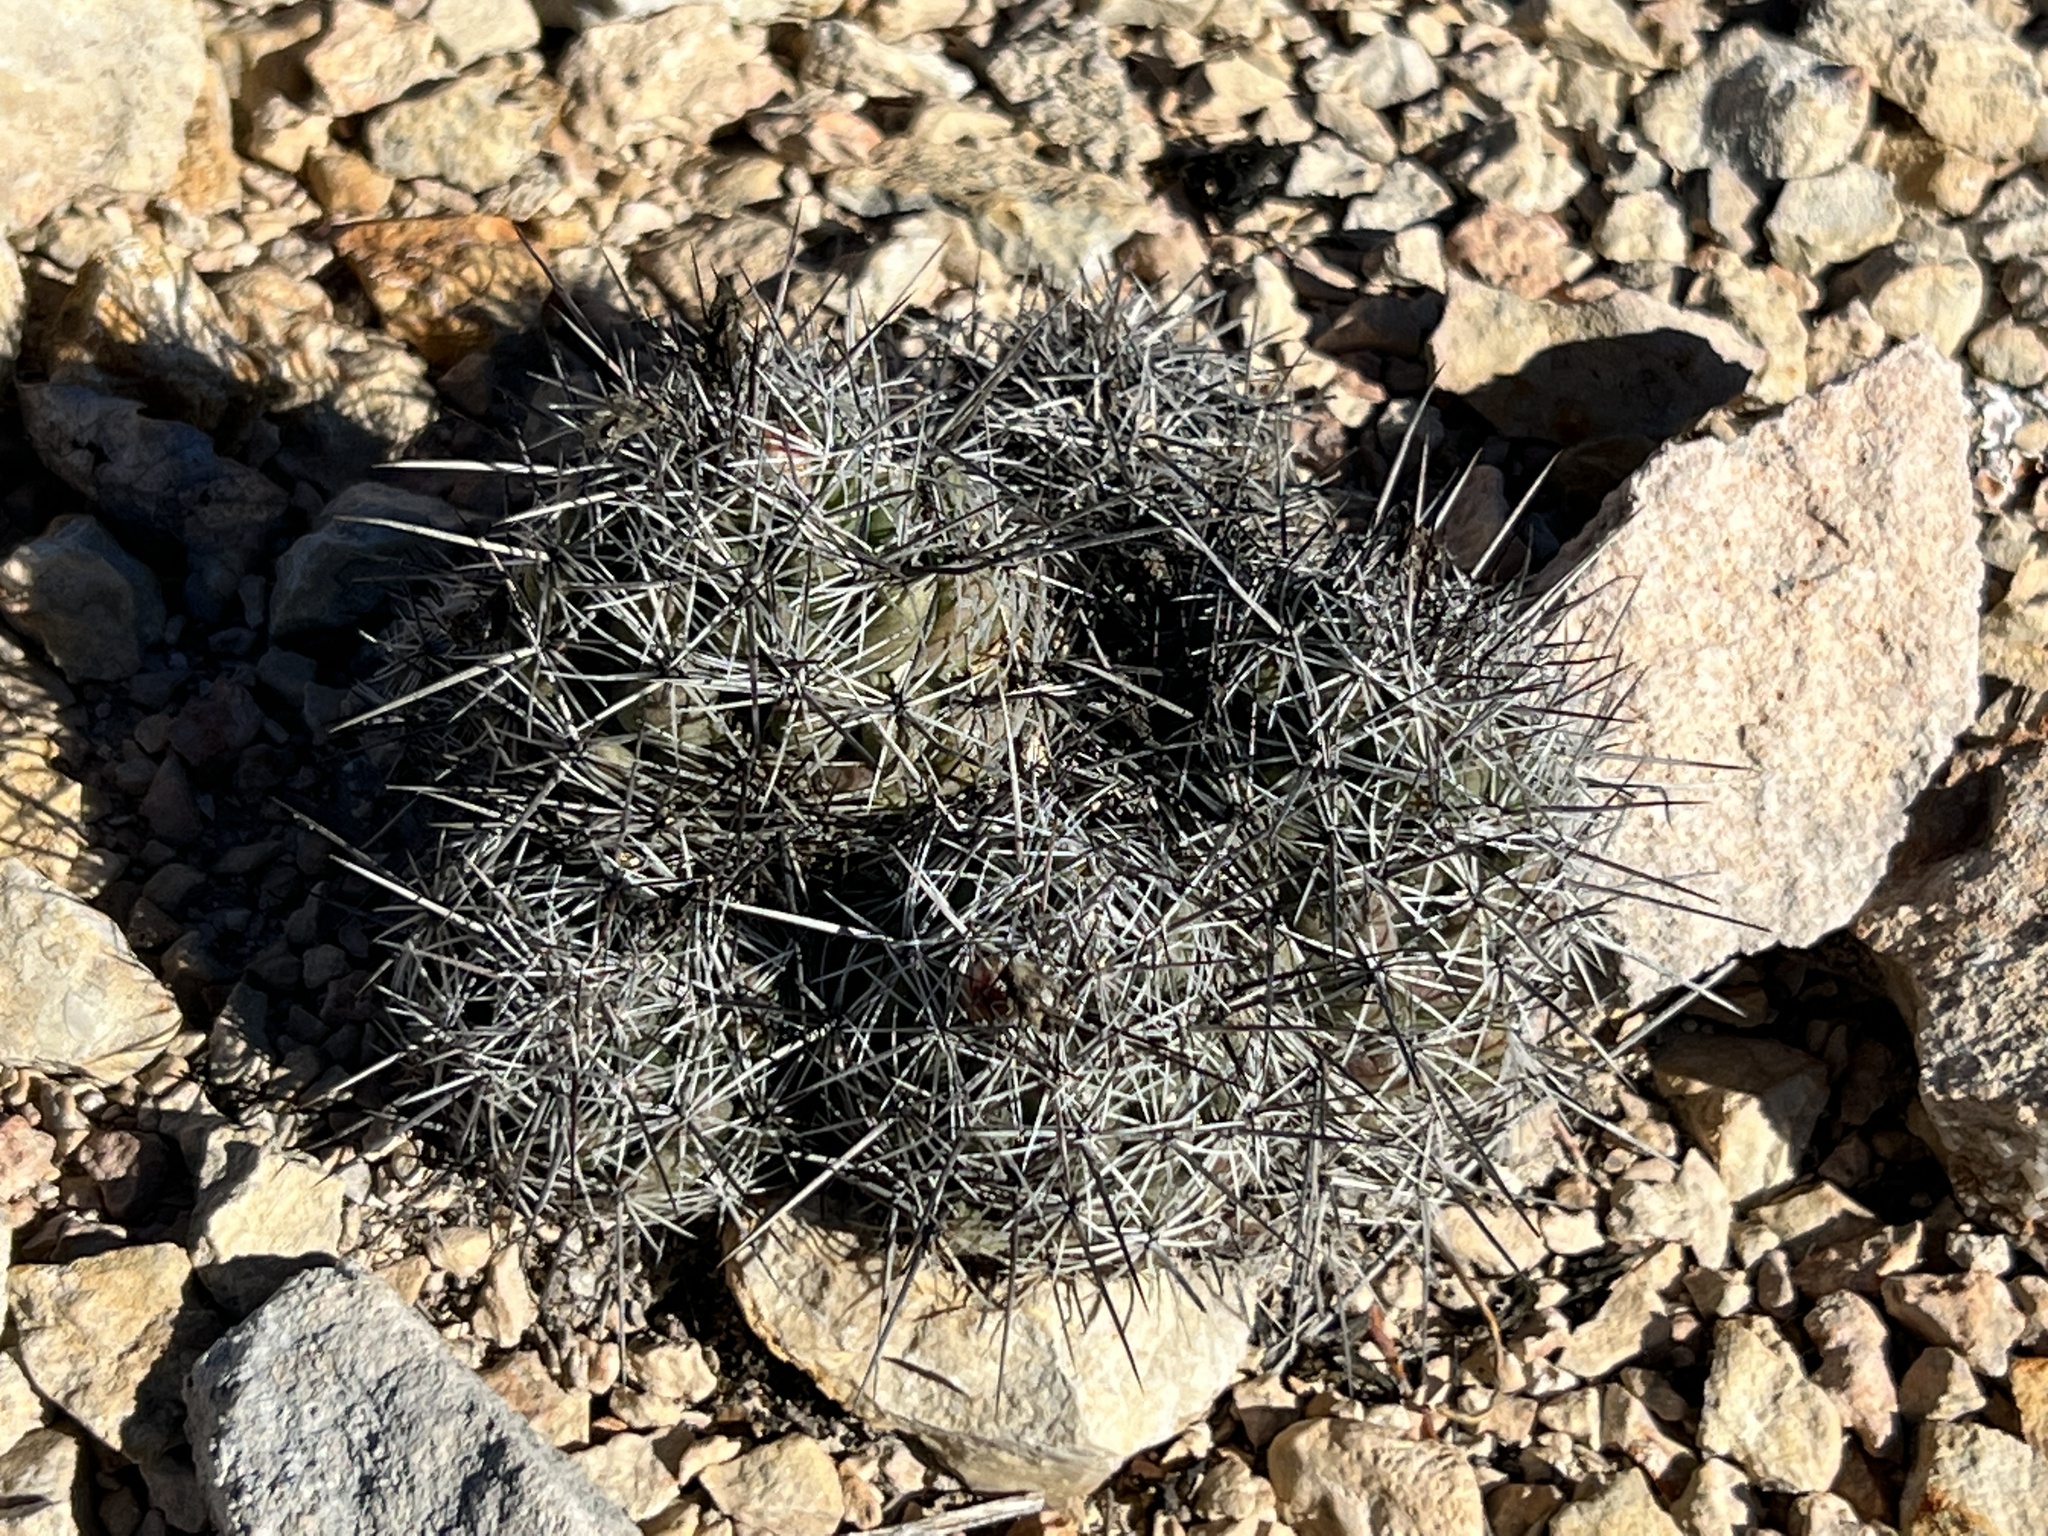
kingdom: Plantae
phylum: Tracheophyta
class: Magnoliopsida
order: Caryophyllales
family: Cactaceae
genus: Cochemiea
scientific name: Cochemiea conoidea
